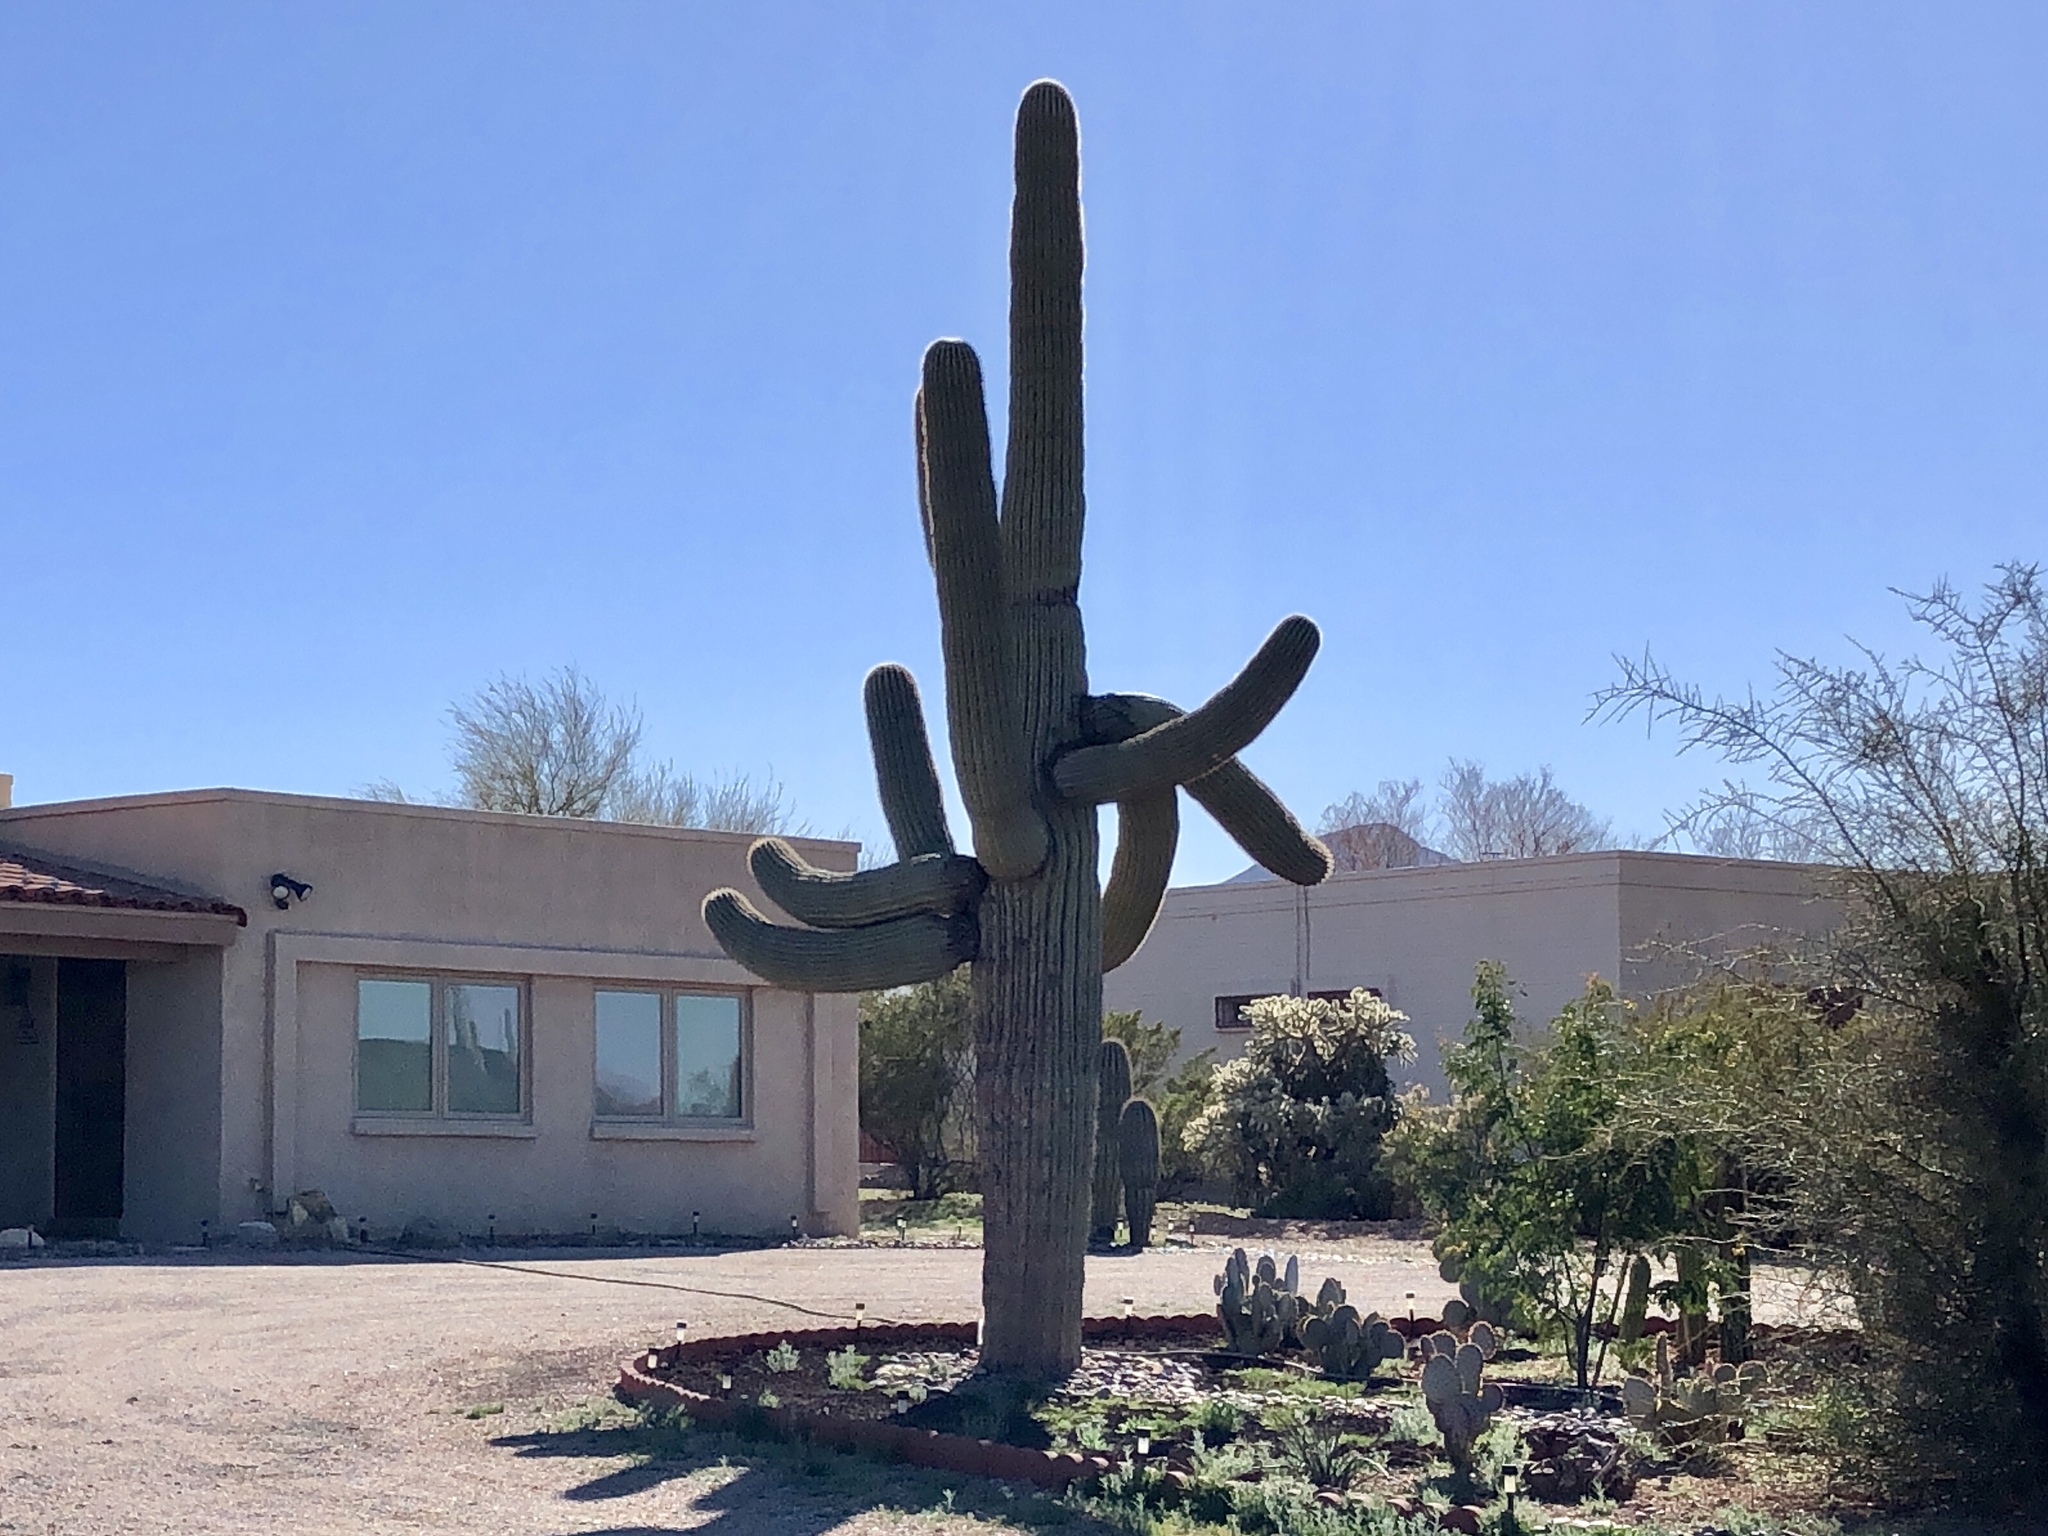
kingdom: Plantae
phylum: Tracheophyta
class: Magnoliopsida
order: Caryophyllales
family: Cactaceae
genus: Carnegiea
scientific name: Carnegiea gigantea
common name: Saguaro
